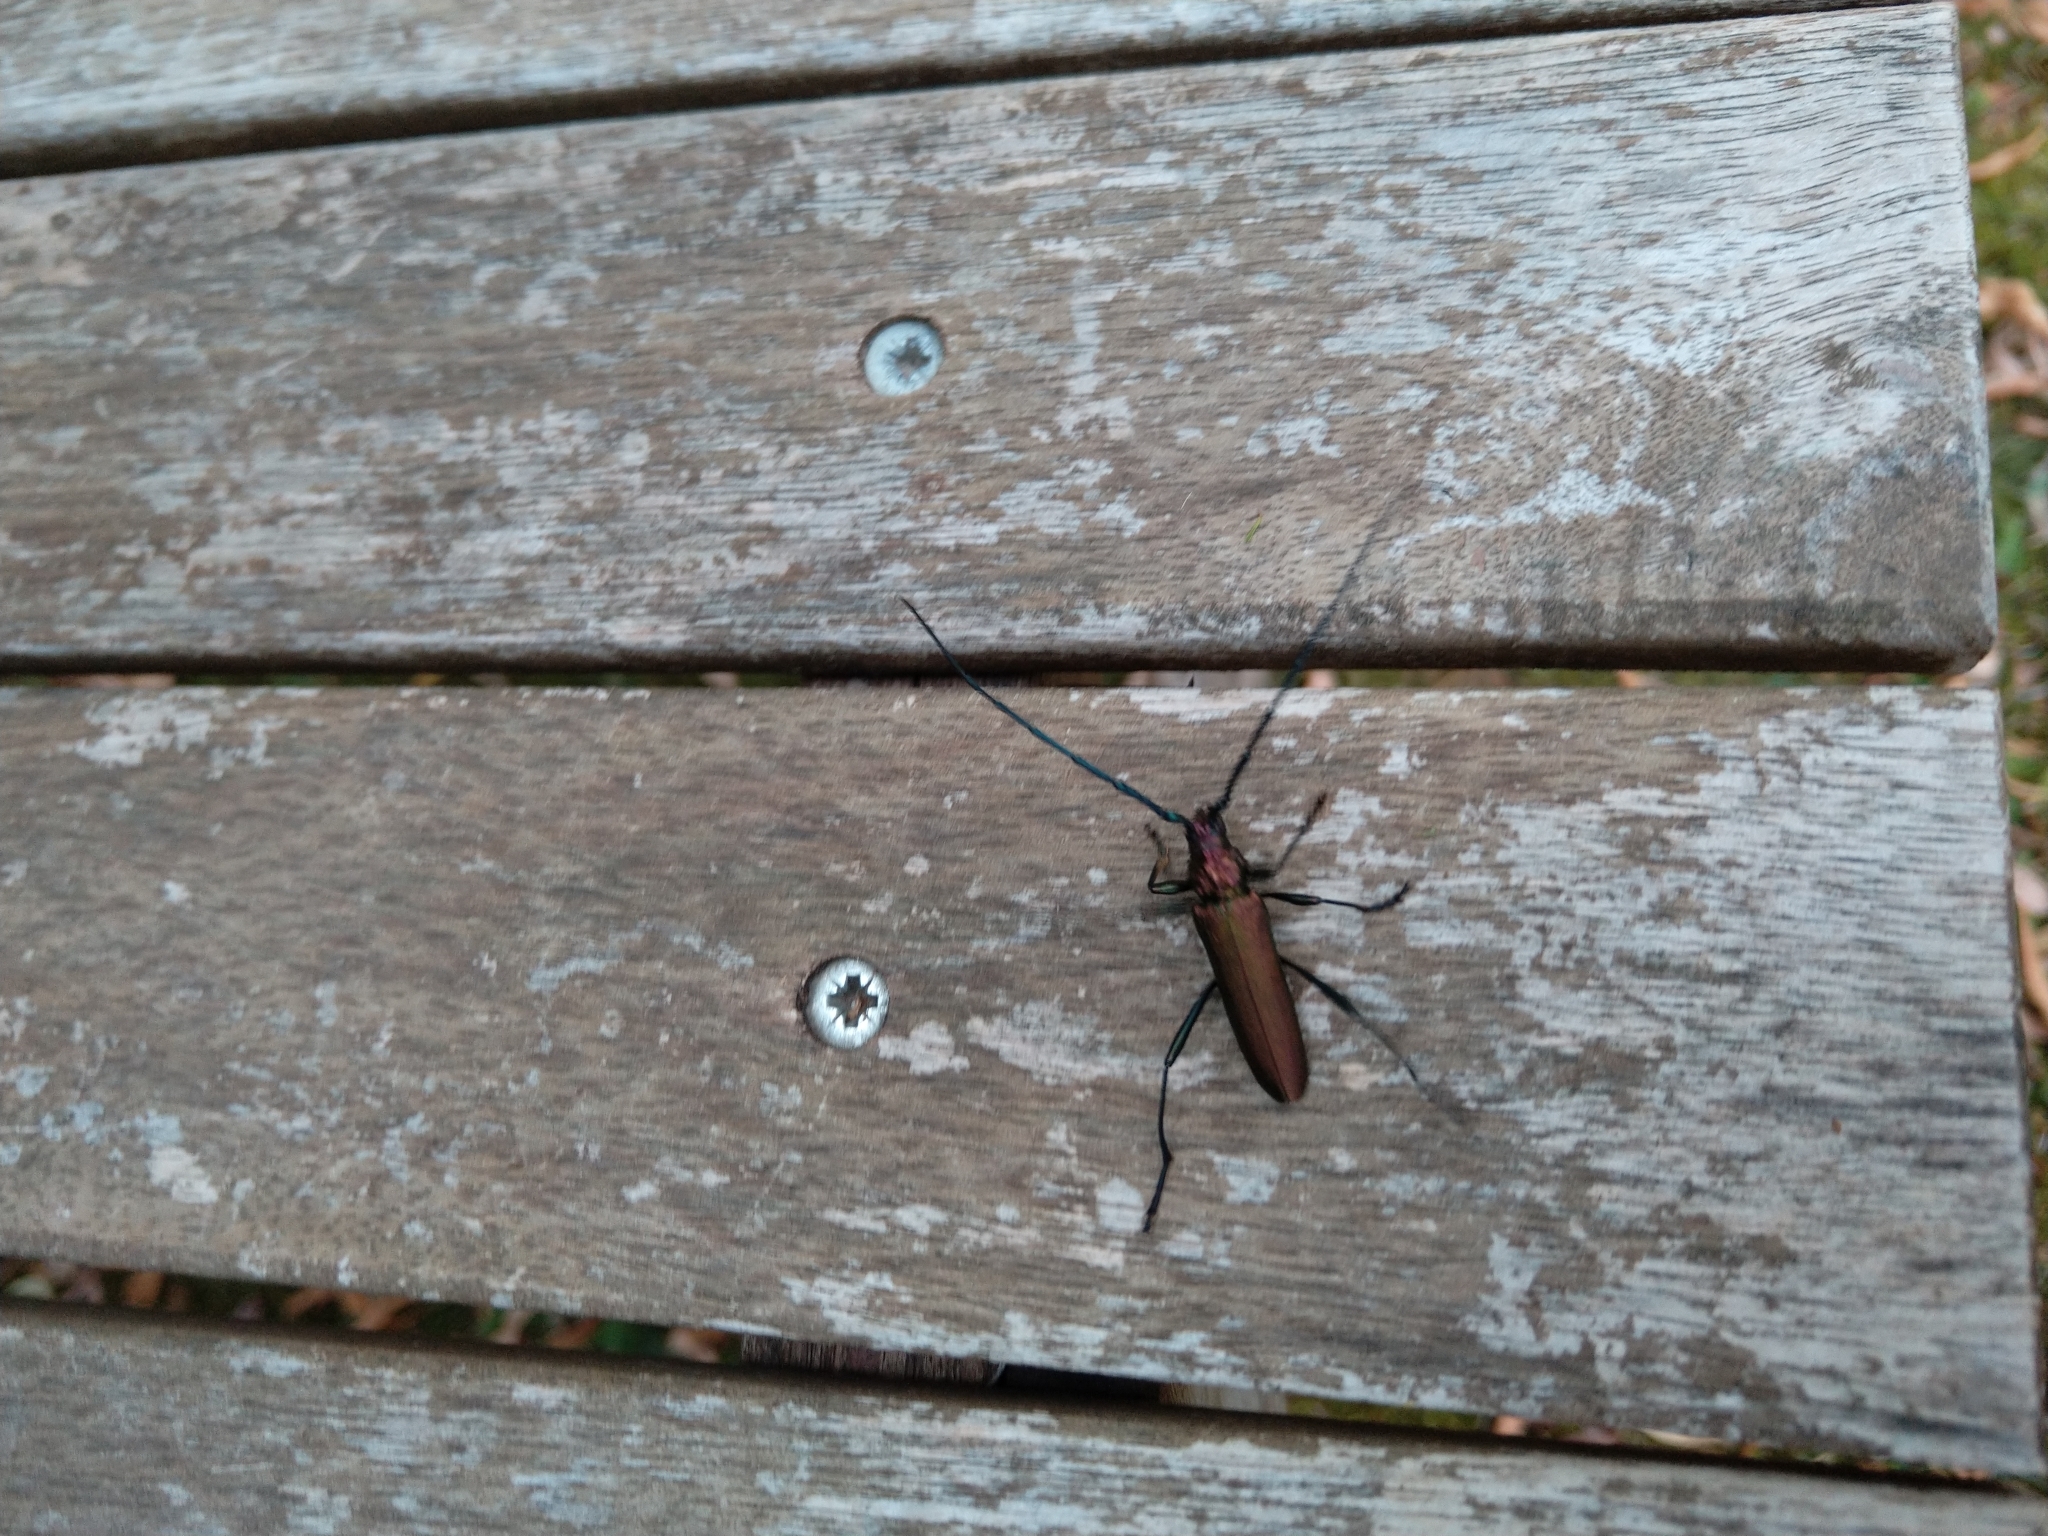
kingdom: Animalia
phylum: Arthropoda
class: Insecta
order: Coleoptera
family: Cerambycidae
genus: Aromia
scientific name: Aromia moschata
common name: Musk beetle
